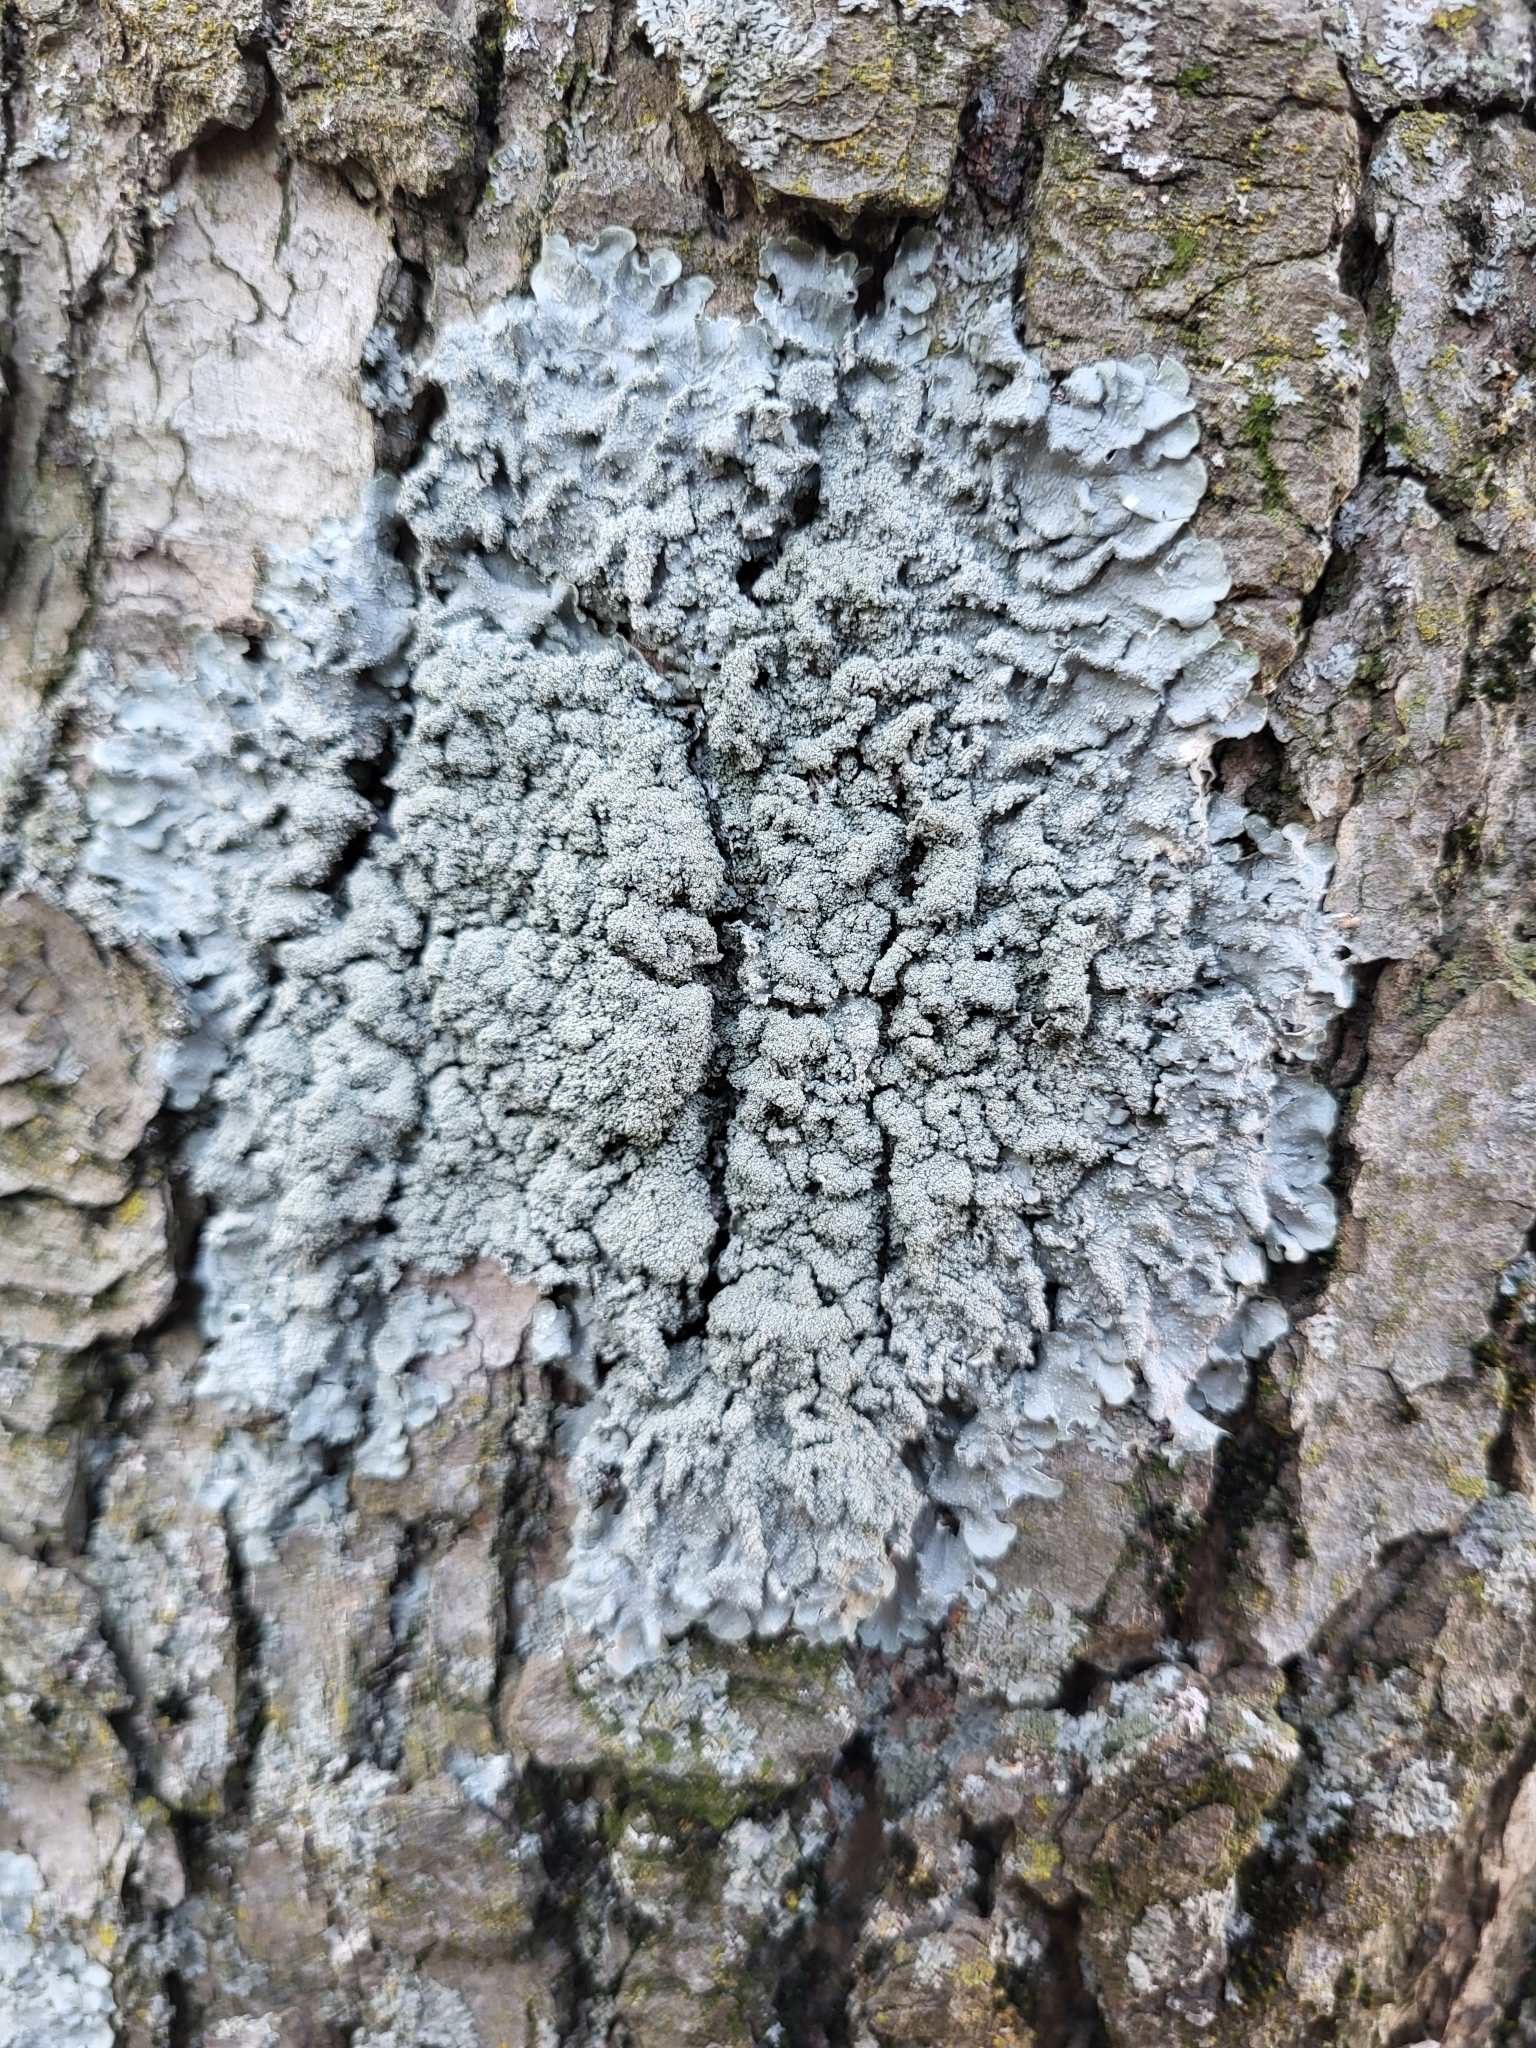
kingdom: Fungi
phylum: Ascomycota
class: Lecanoromycetes
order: Lecanorales
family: Parmeliaceae
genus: Punctelia
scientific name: Punctelia missouriensis
